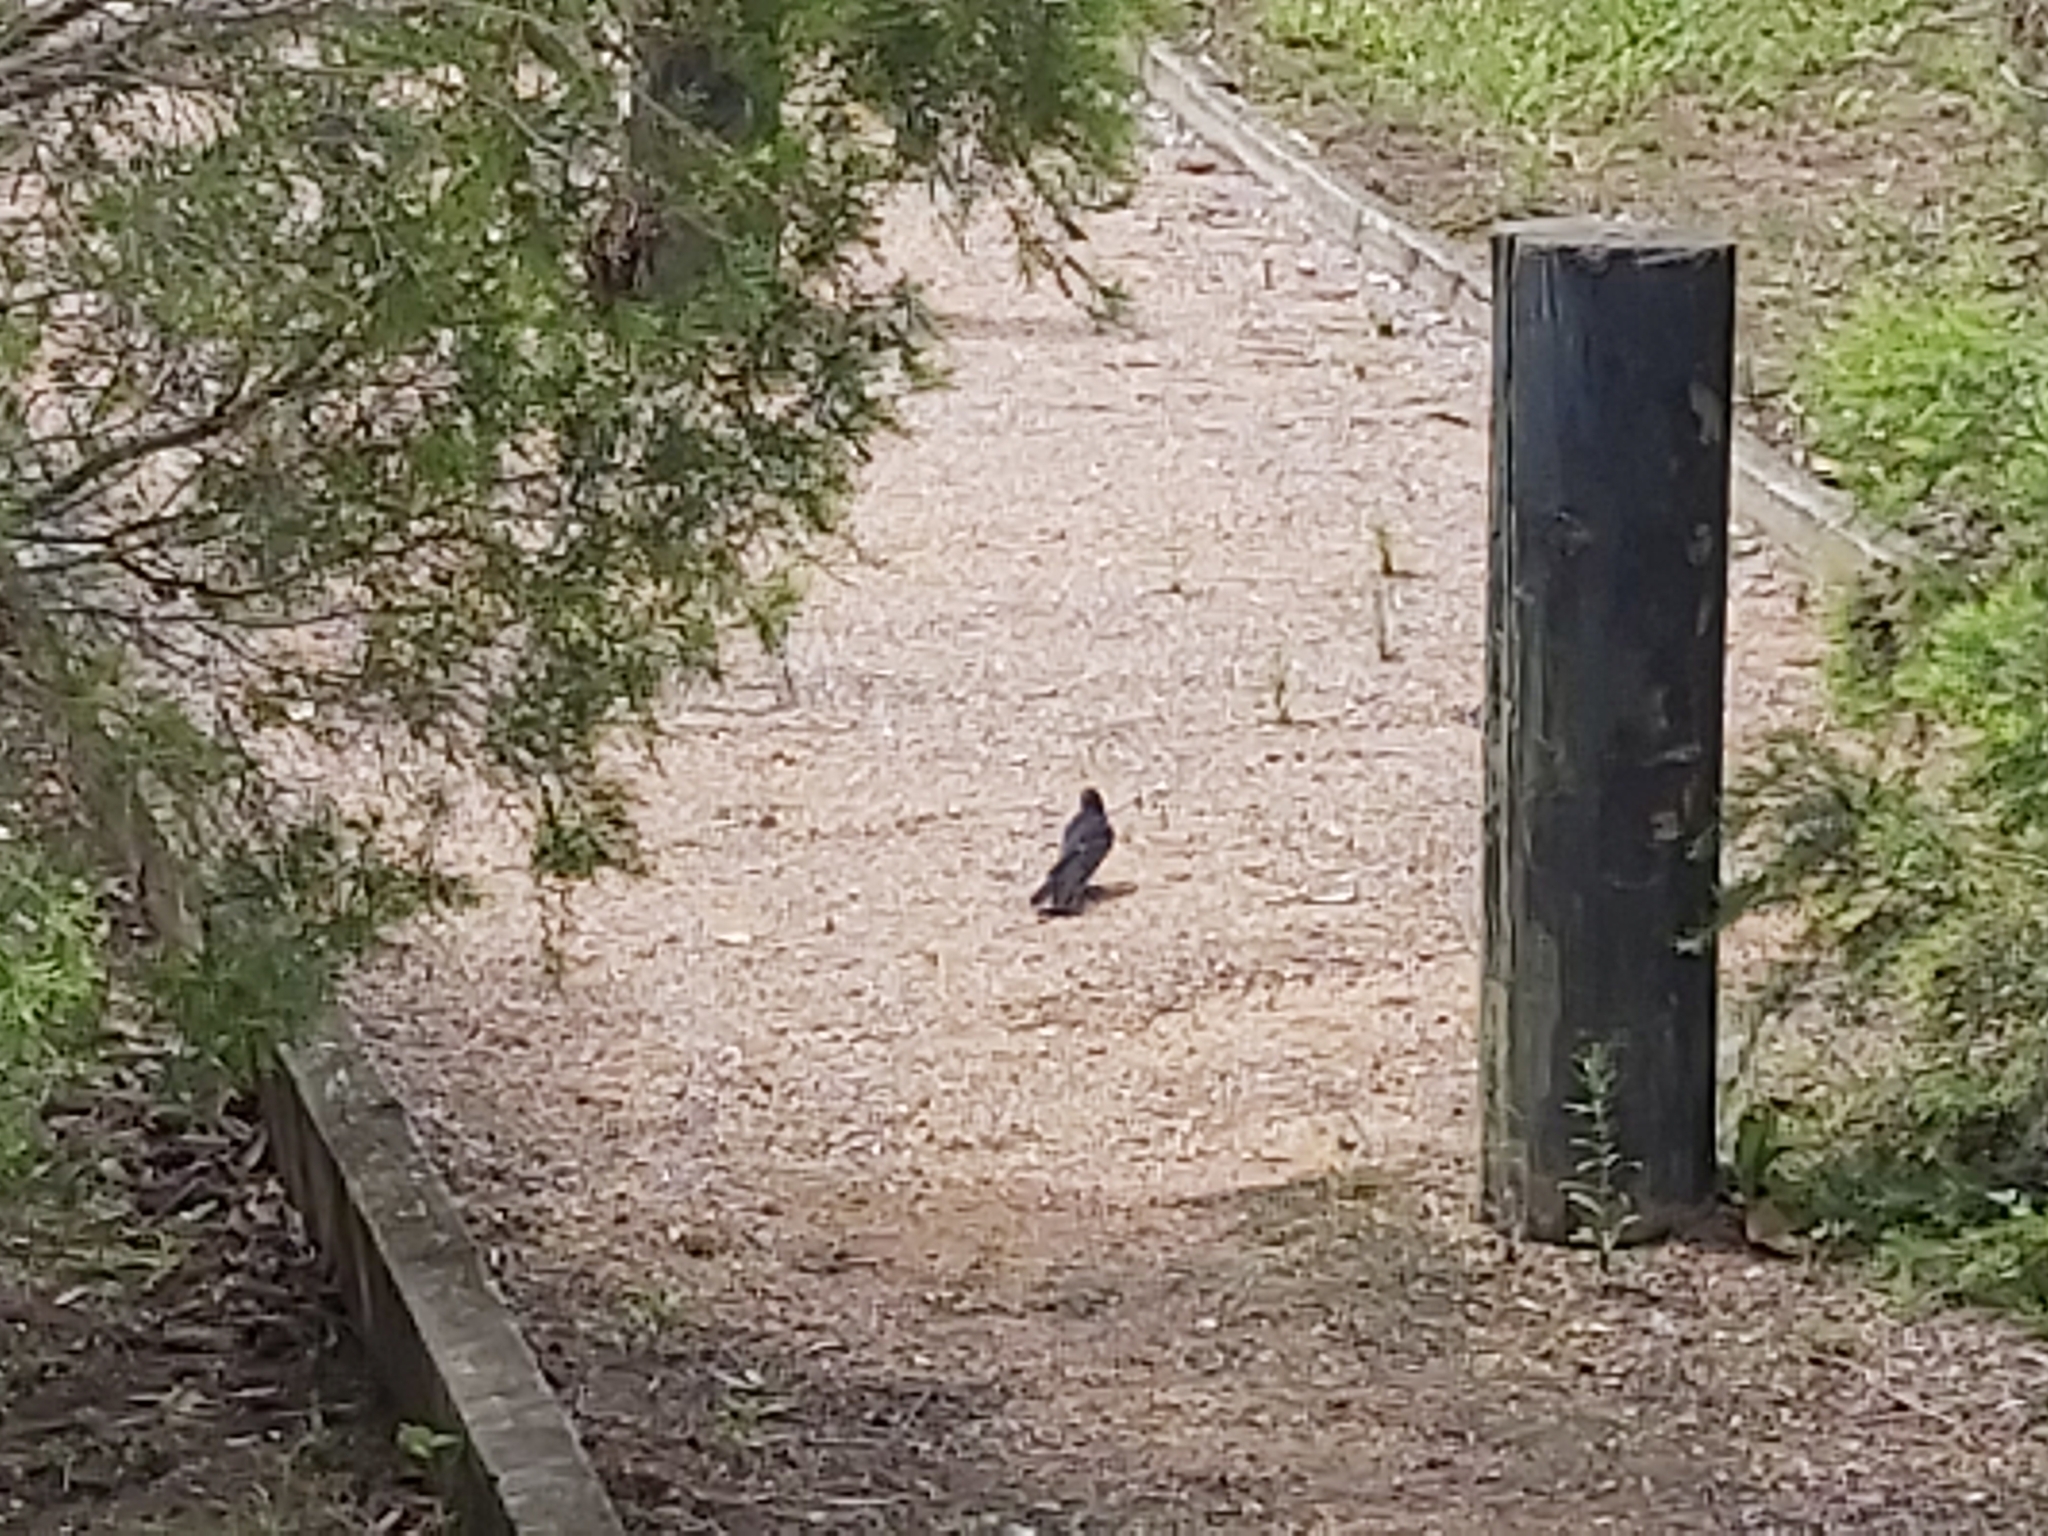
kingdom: Animalia
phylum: Chordata
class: Aves
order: Passeriformes
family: Rhipiduridae
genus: Rhipidura
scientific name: Rhipidura leucophrys
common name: Willie wagtail
